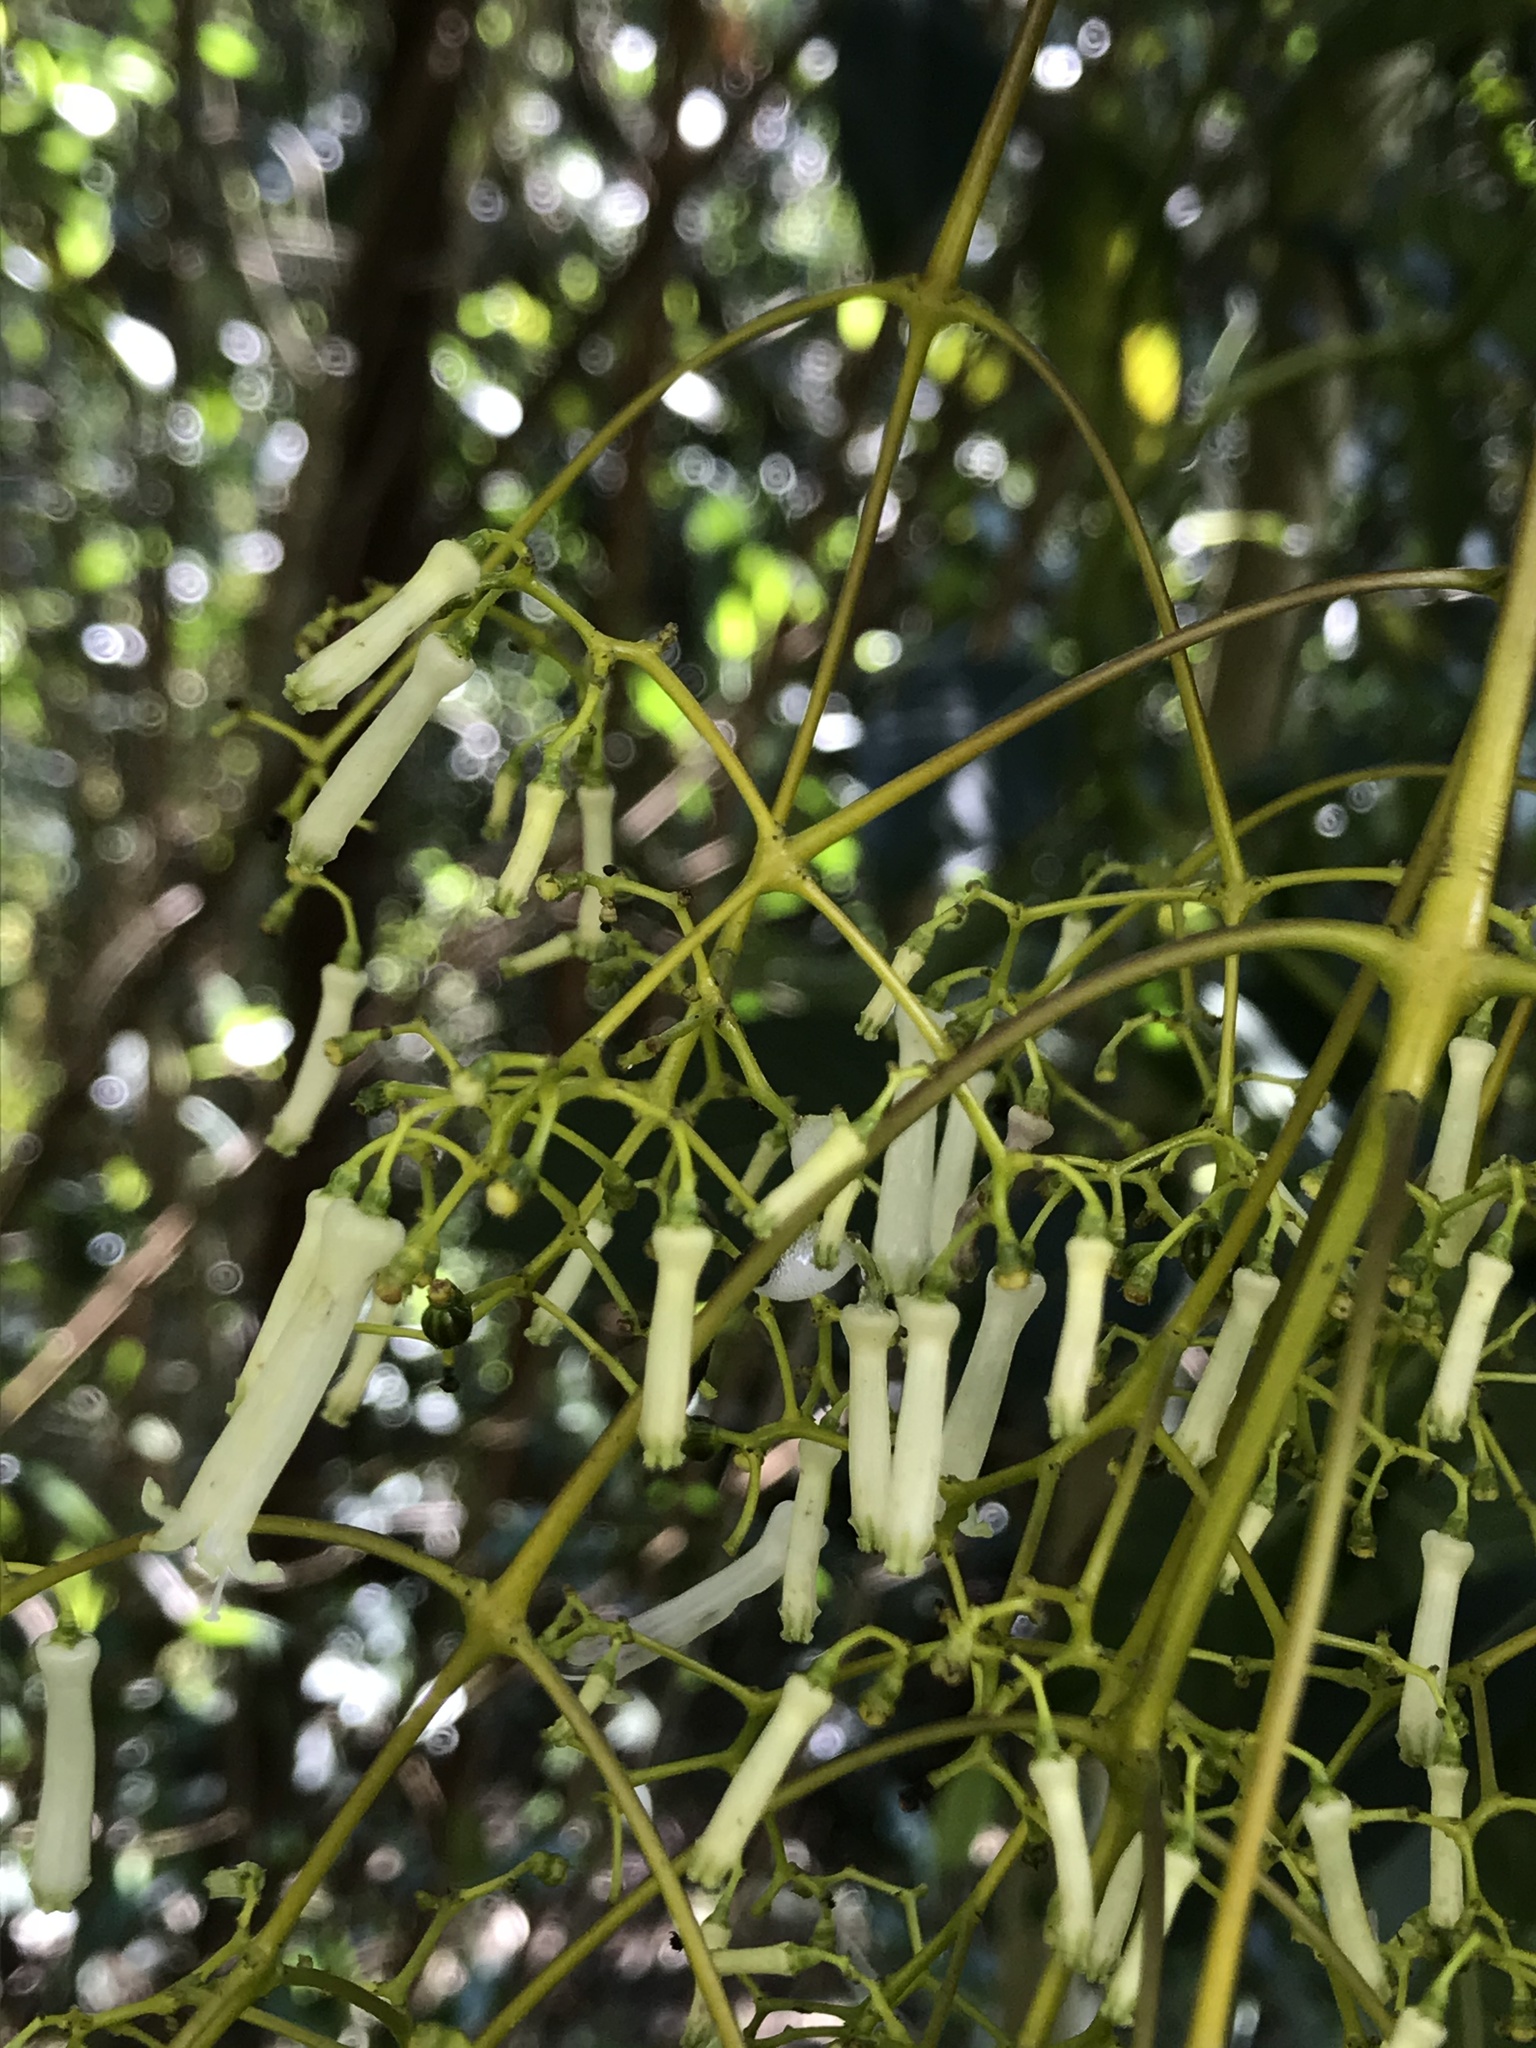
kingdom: Plantae
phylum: Tracheophyta
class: Magnoliopsida
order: Gentianales
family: Rubiaceae
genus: Palicourea
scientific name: Palicourea lineariflora
